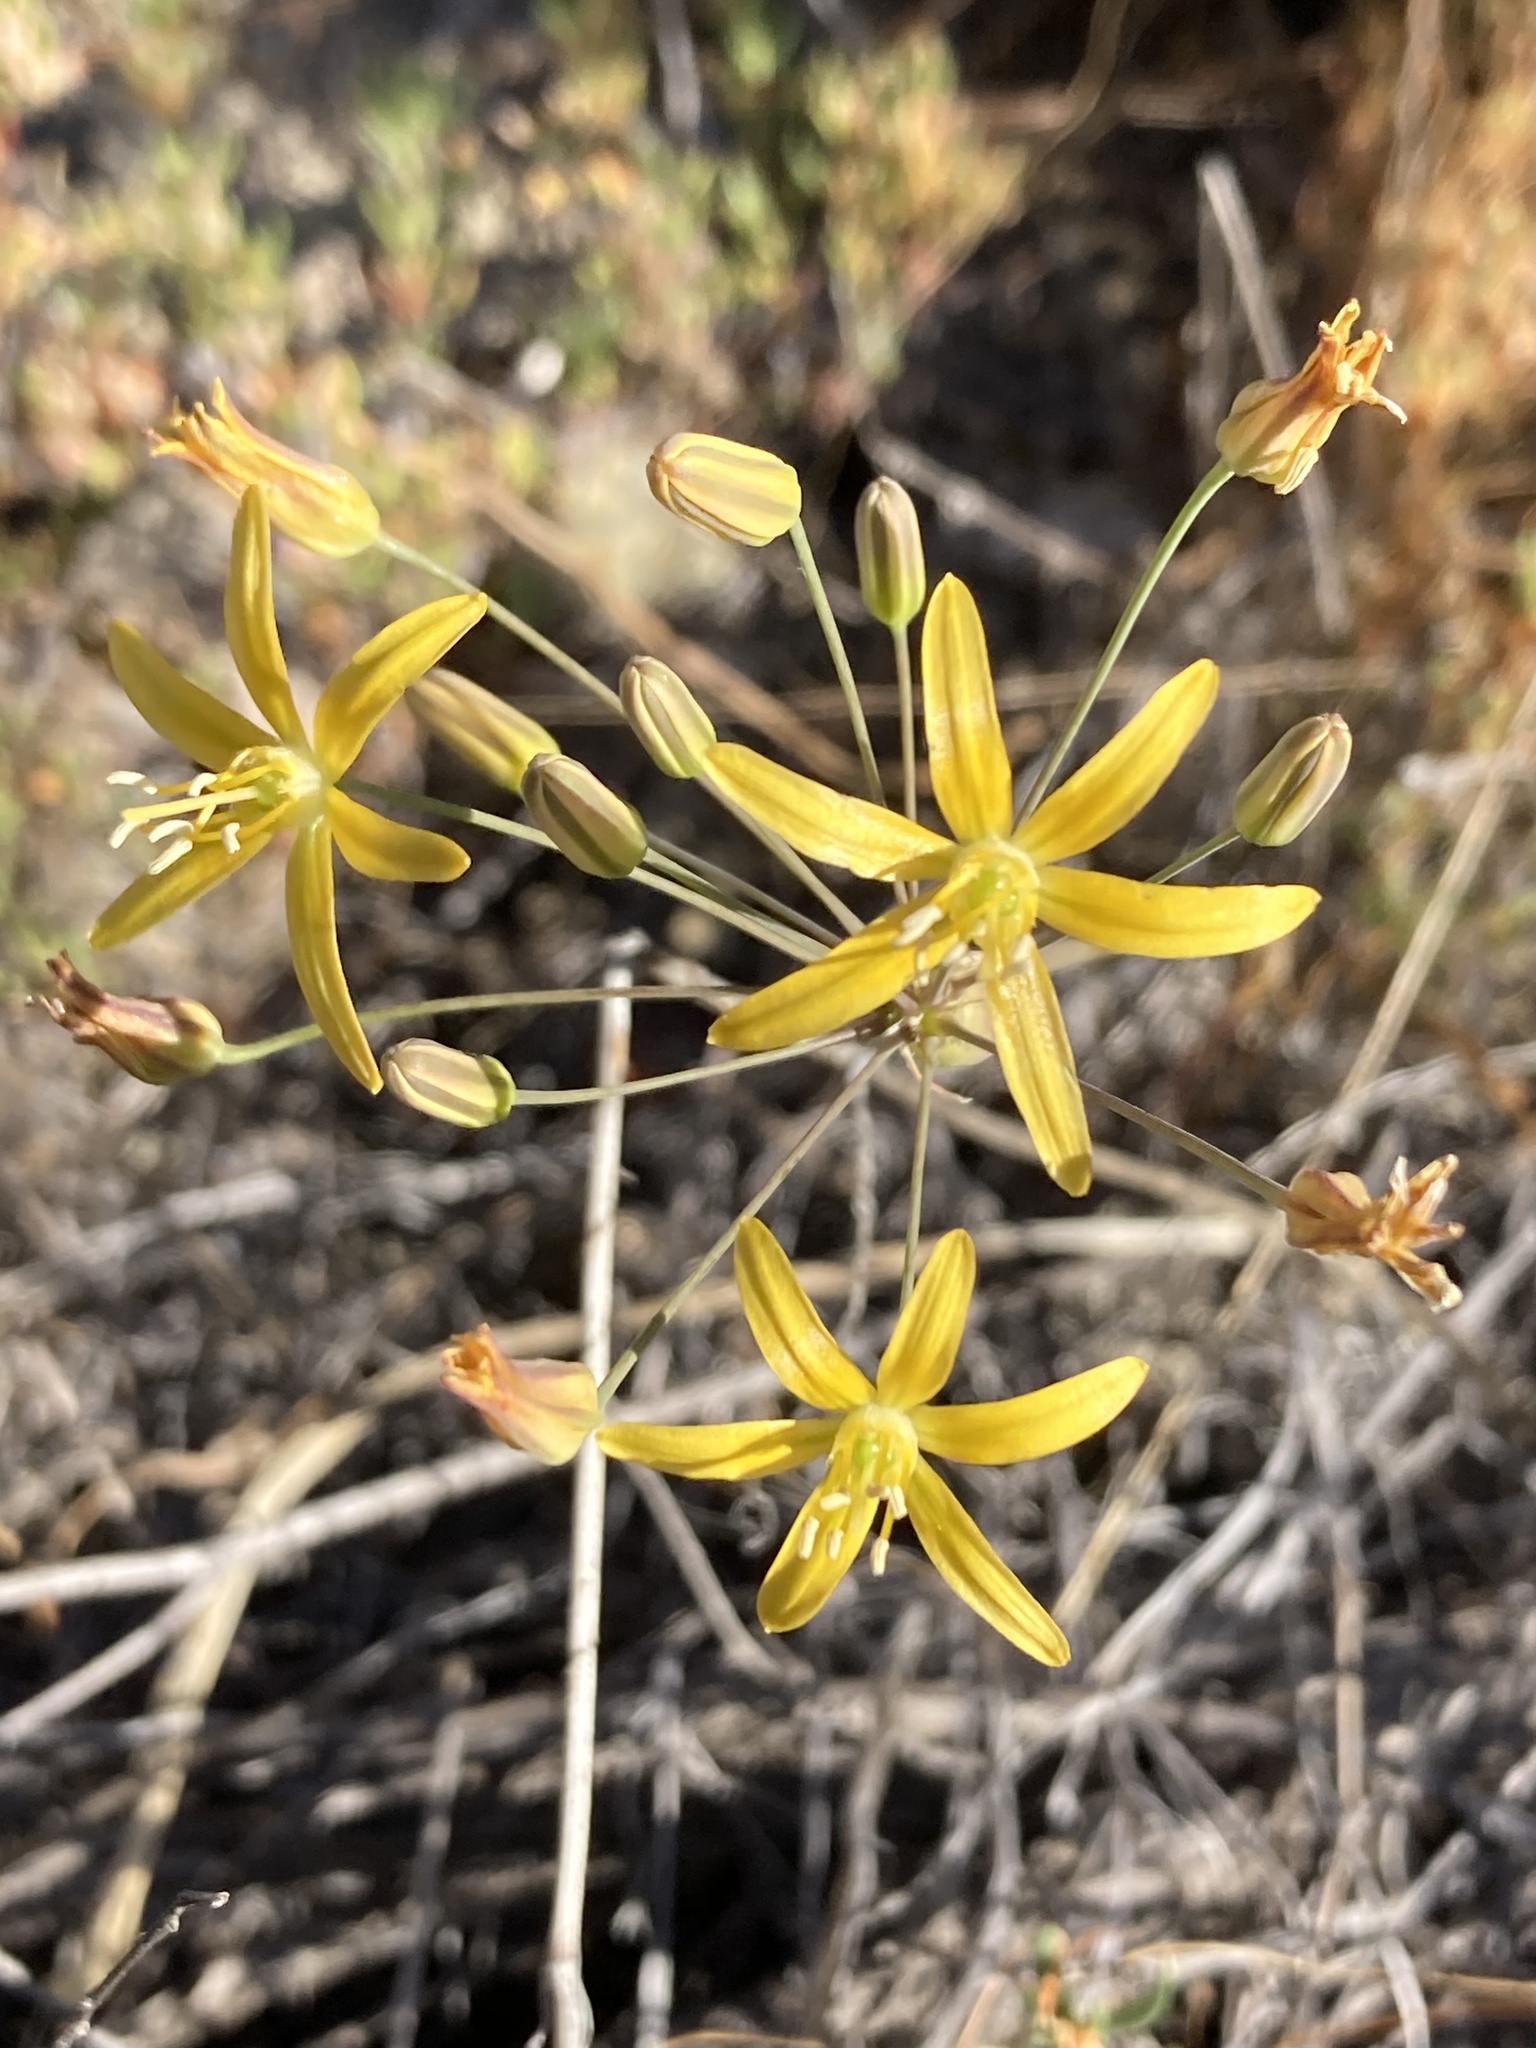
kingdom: Plantae
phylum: Tracheophyta
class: Liliopsida
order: Asparagales
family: Asparagaceae
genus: Bloomeria
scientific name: Bloomeria crocea
